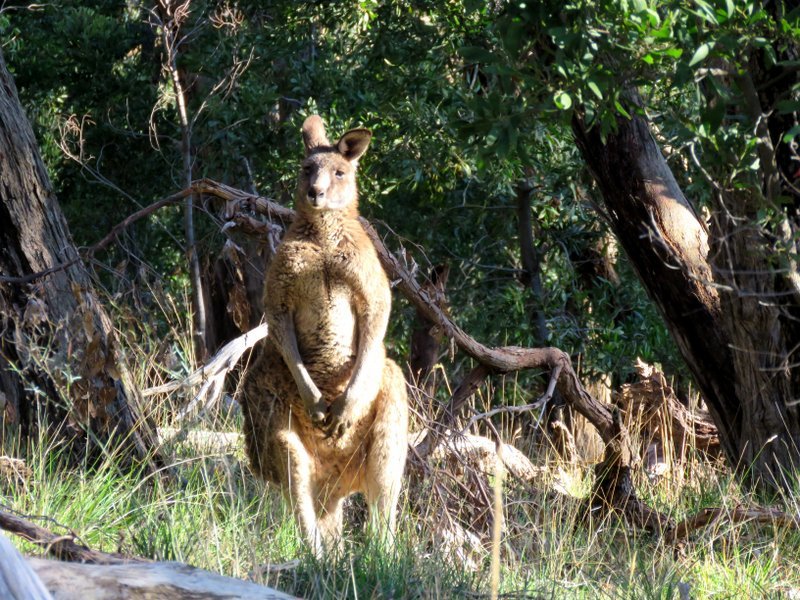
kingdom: Animalia
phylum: Chordata
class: Mammalia
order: Diprotodontia
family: Macropodidae
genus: Macropus
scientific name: Macropus giganteus
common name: Eastern grey kangaroo
